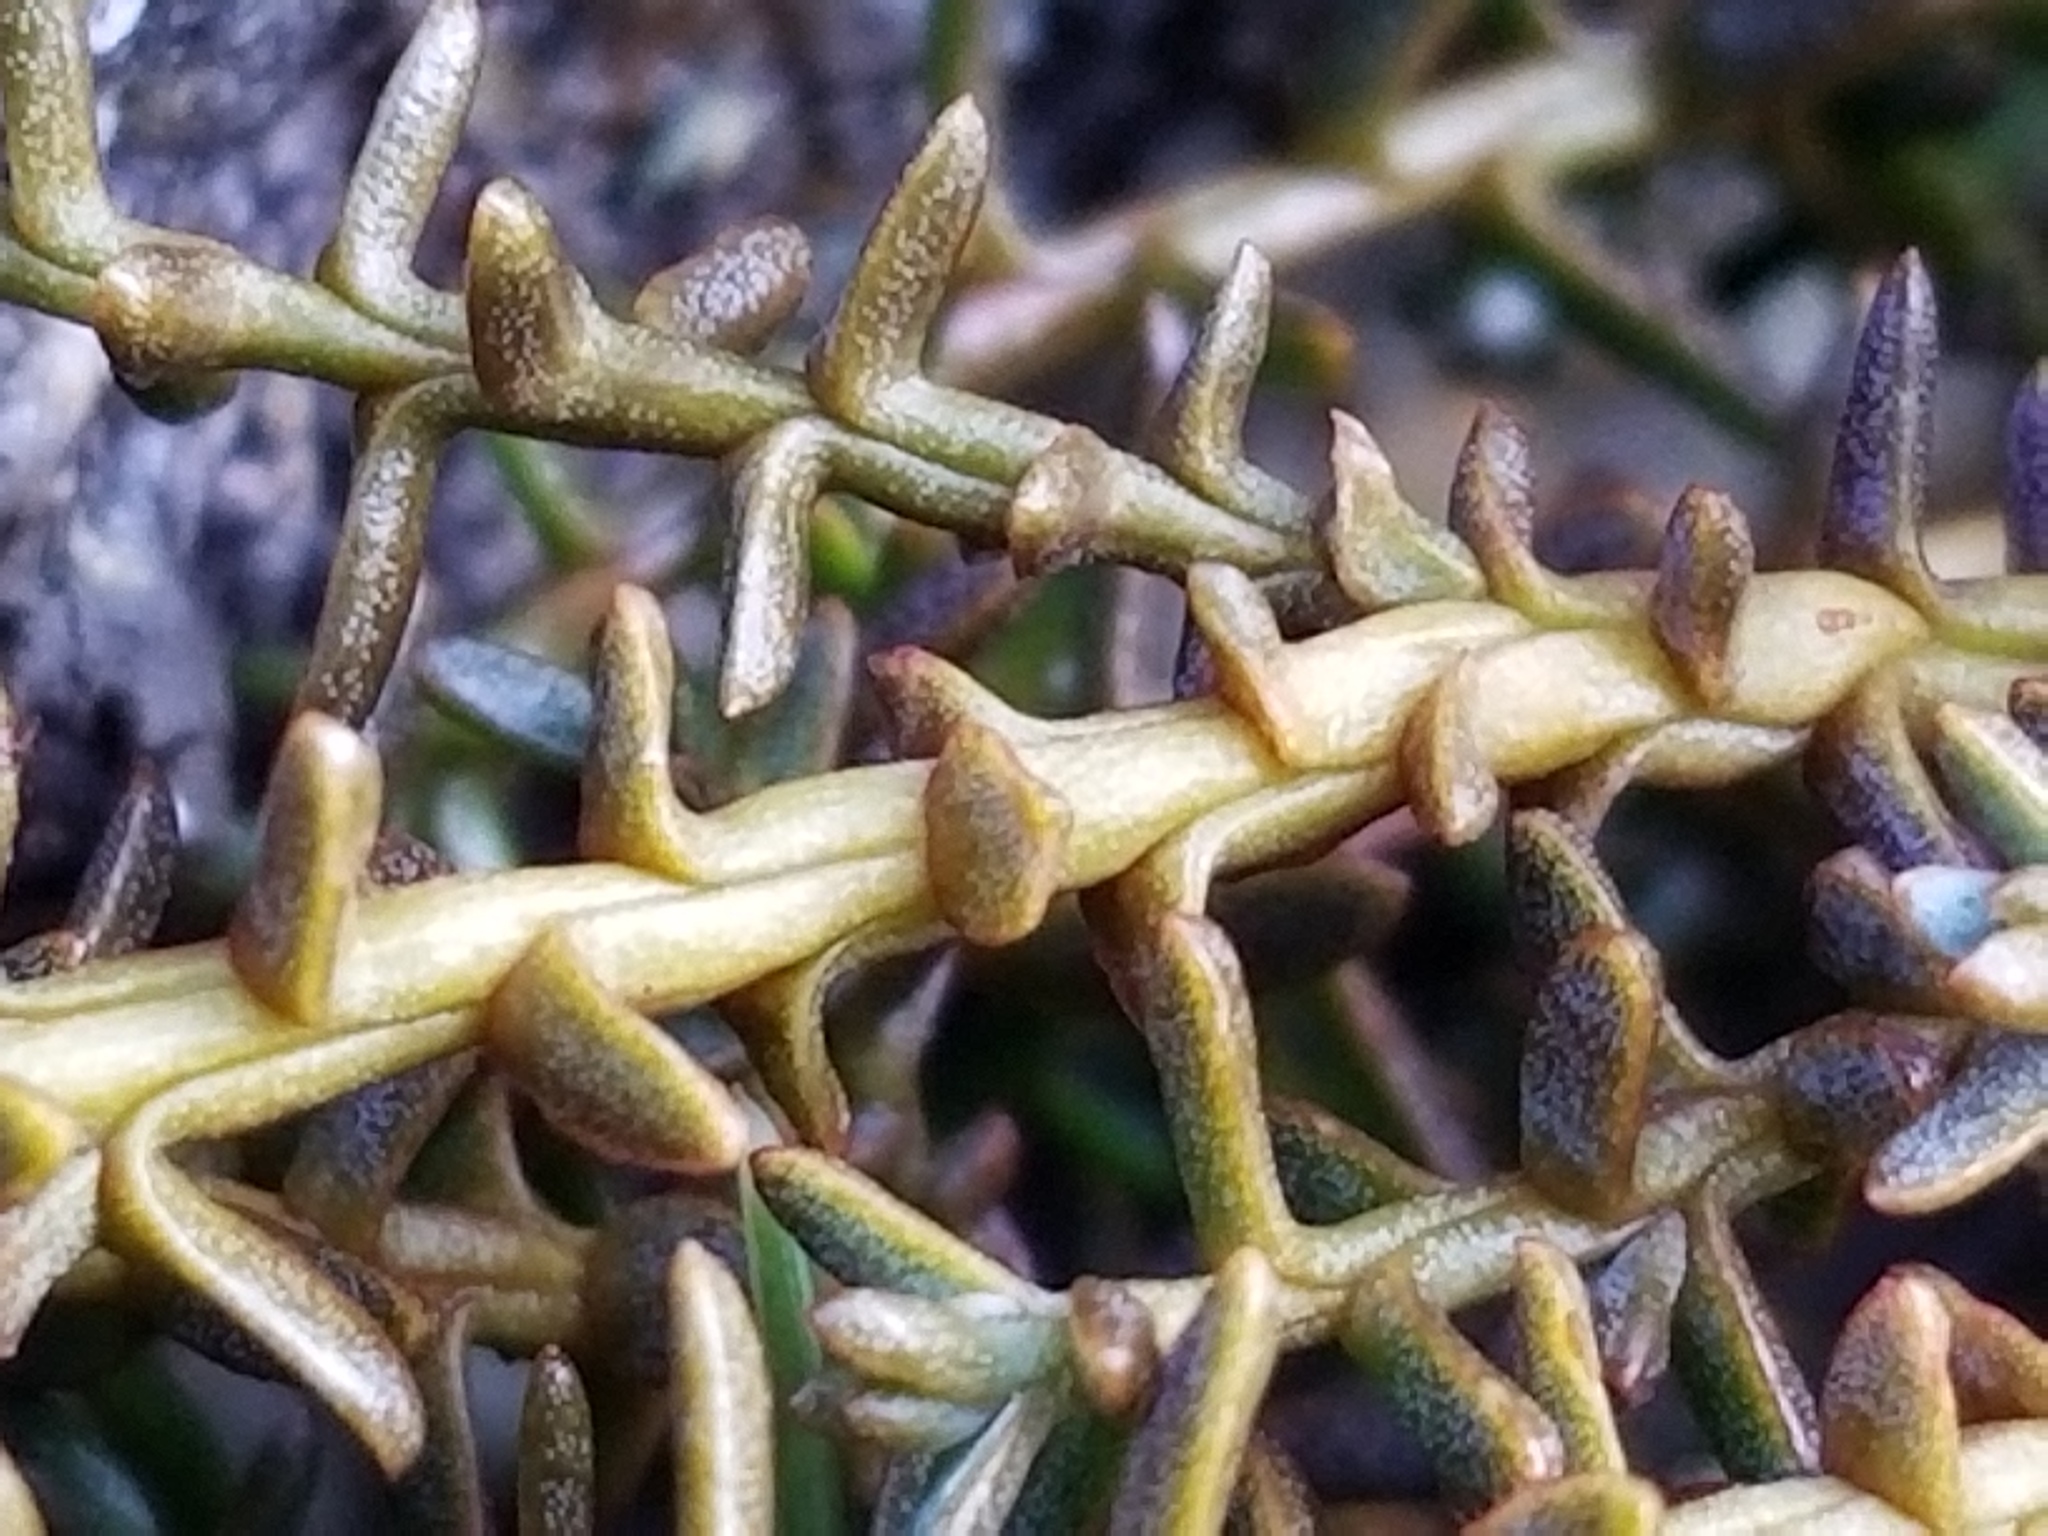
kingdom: Plantae
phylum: Tracheophyta
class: Pinopsida
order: Pinales
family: Podocarpaceae
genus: Lepidothamnus
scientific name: Lepidothamnus laxifolius
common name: Pygmy pine
